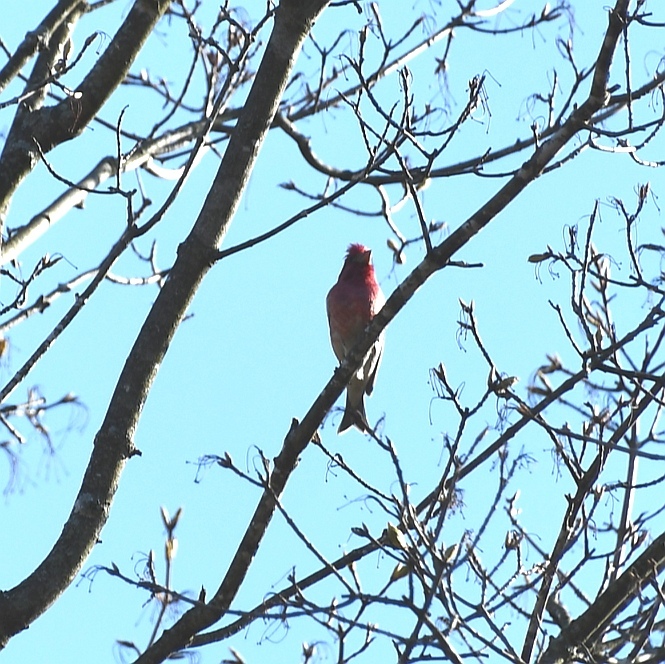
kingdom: Animalia
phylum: Chordata
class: Aves
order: Passeriformes
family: Fringillidae
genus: Haemorhous
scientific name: Haemorhous purpureus
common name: Purple finch
